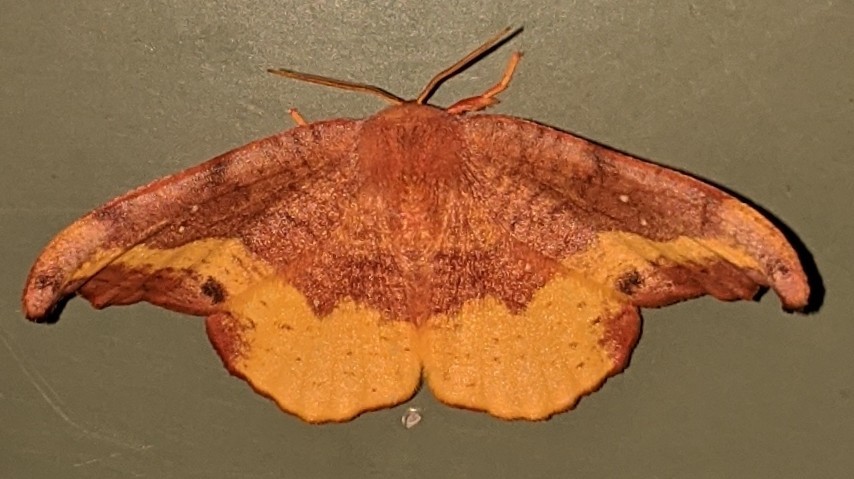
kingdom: Animalia
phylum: Arthropoda
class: Insecta
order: Lepidoptera
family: Drepanidae
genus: Oreta
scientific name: Oreta rosea
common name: Rose hooktip
